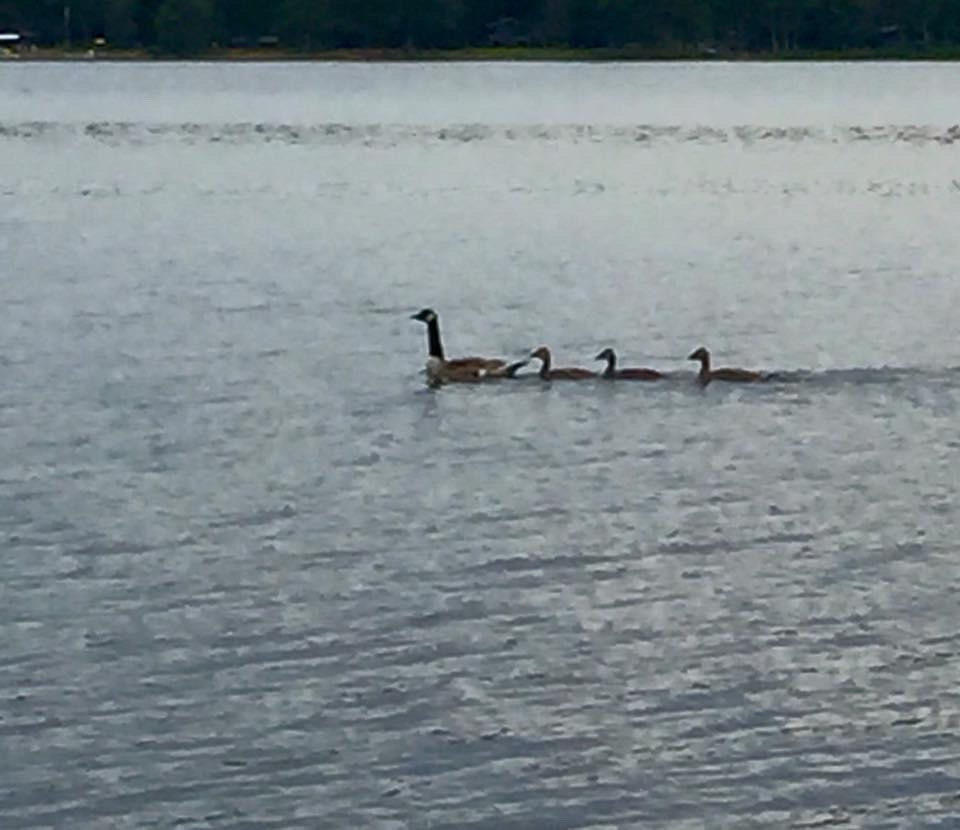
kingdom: Animalia
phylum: Chordata
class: Aves
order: Anseriformes
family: Anatidae
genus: Branta
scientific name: Branta canadensis
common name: Canada goose
